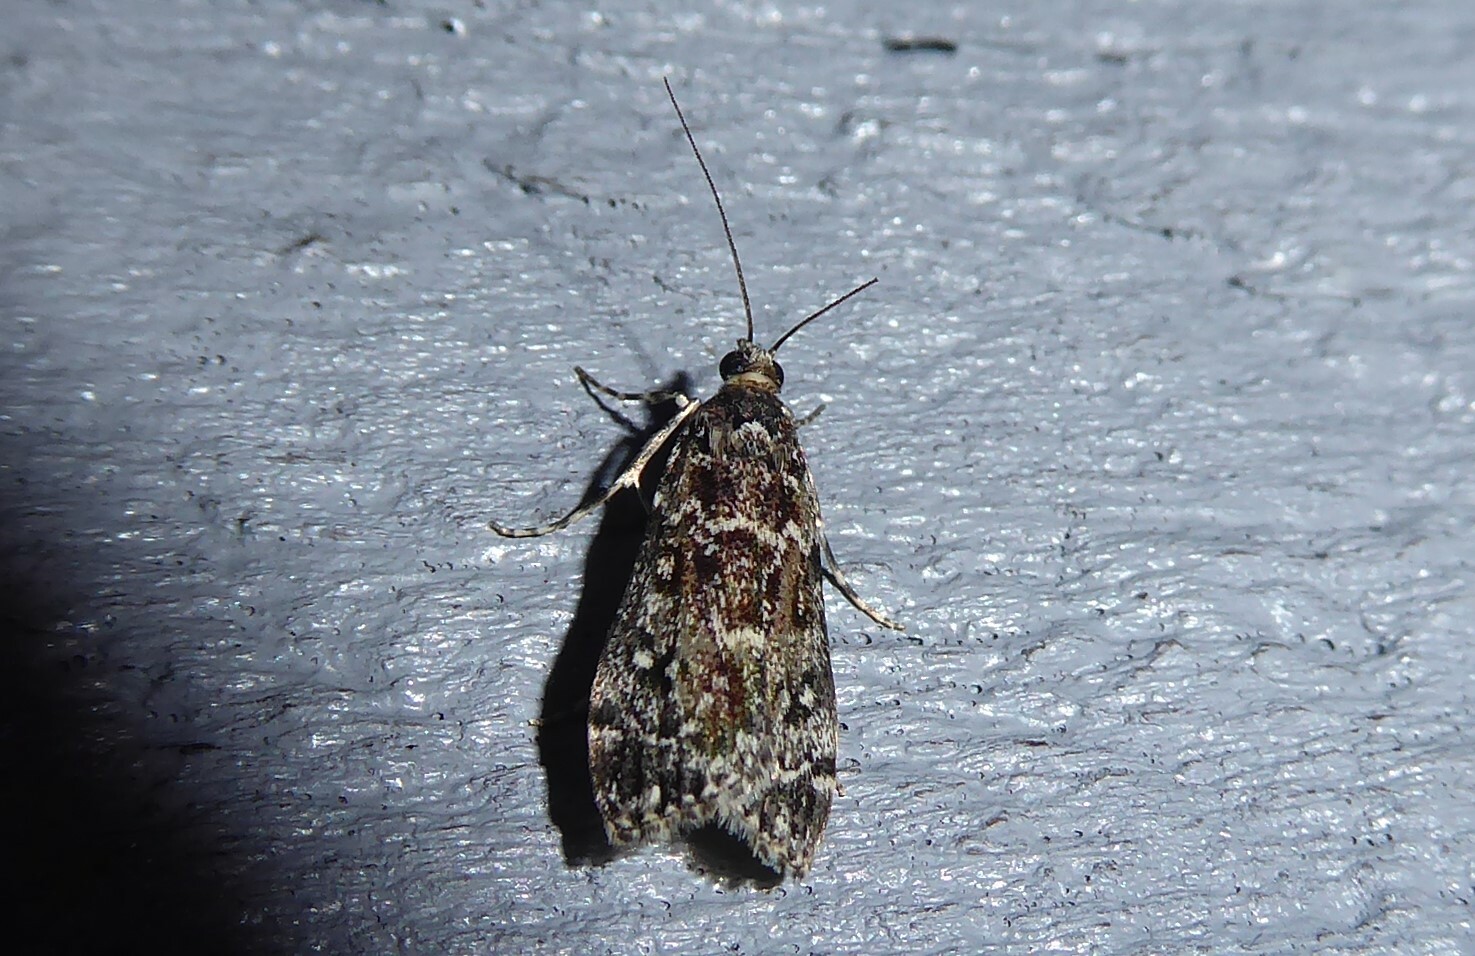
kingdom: Animalia
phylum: Arthropoda
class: Insecta
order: Lepidoptera
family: Crambidae
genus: Eudonia
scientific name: Eudonia philerga
